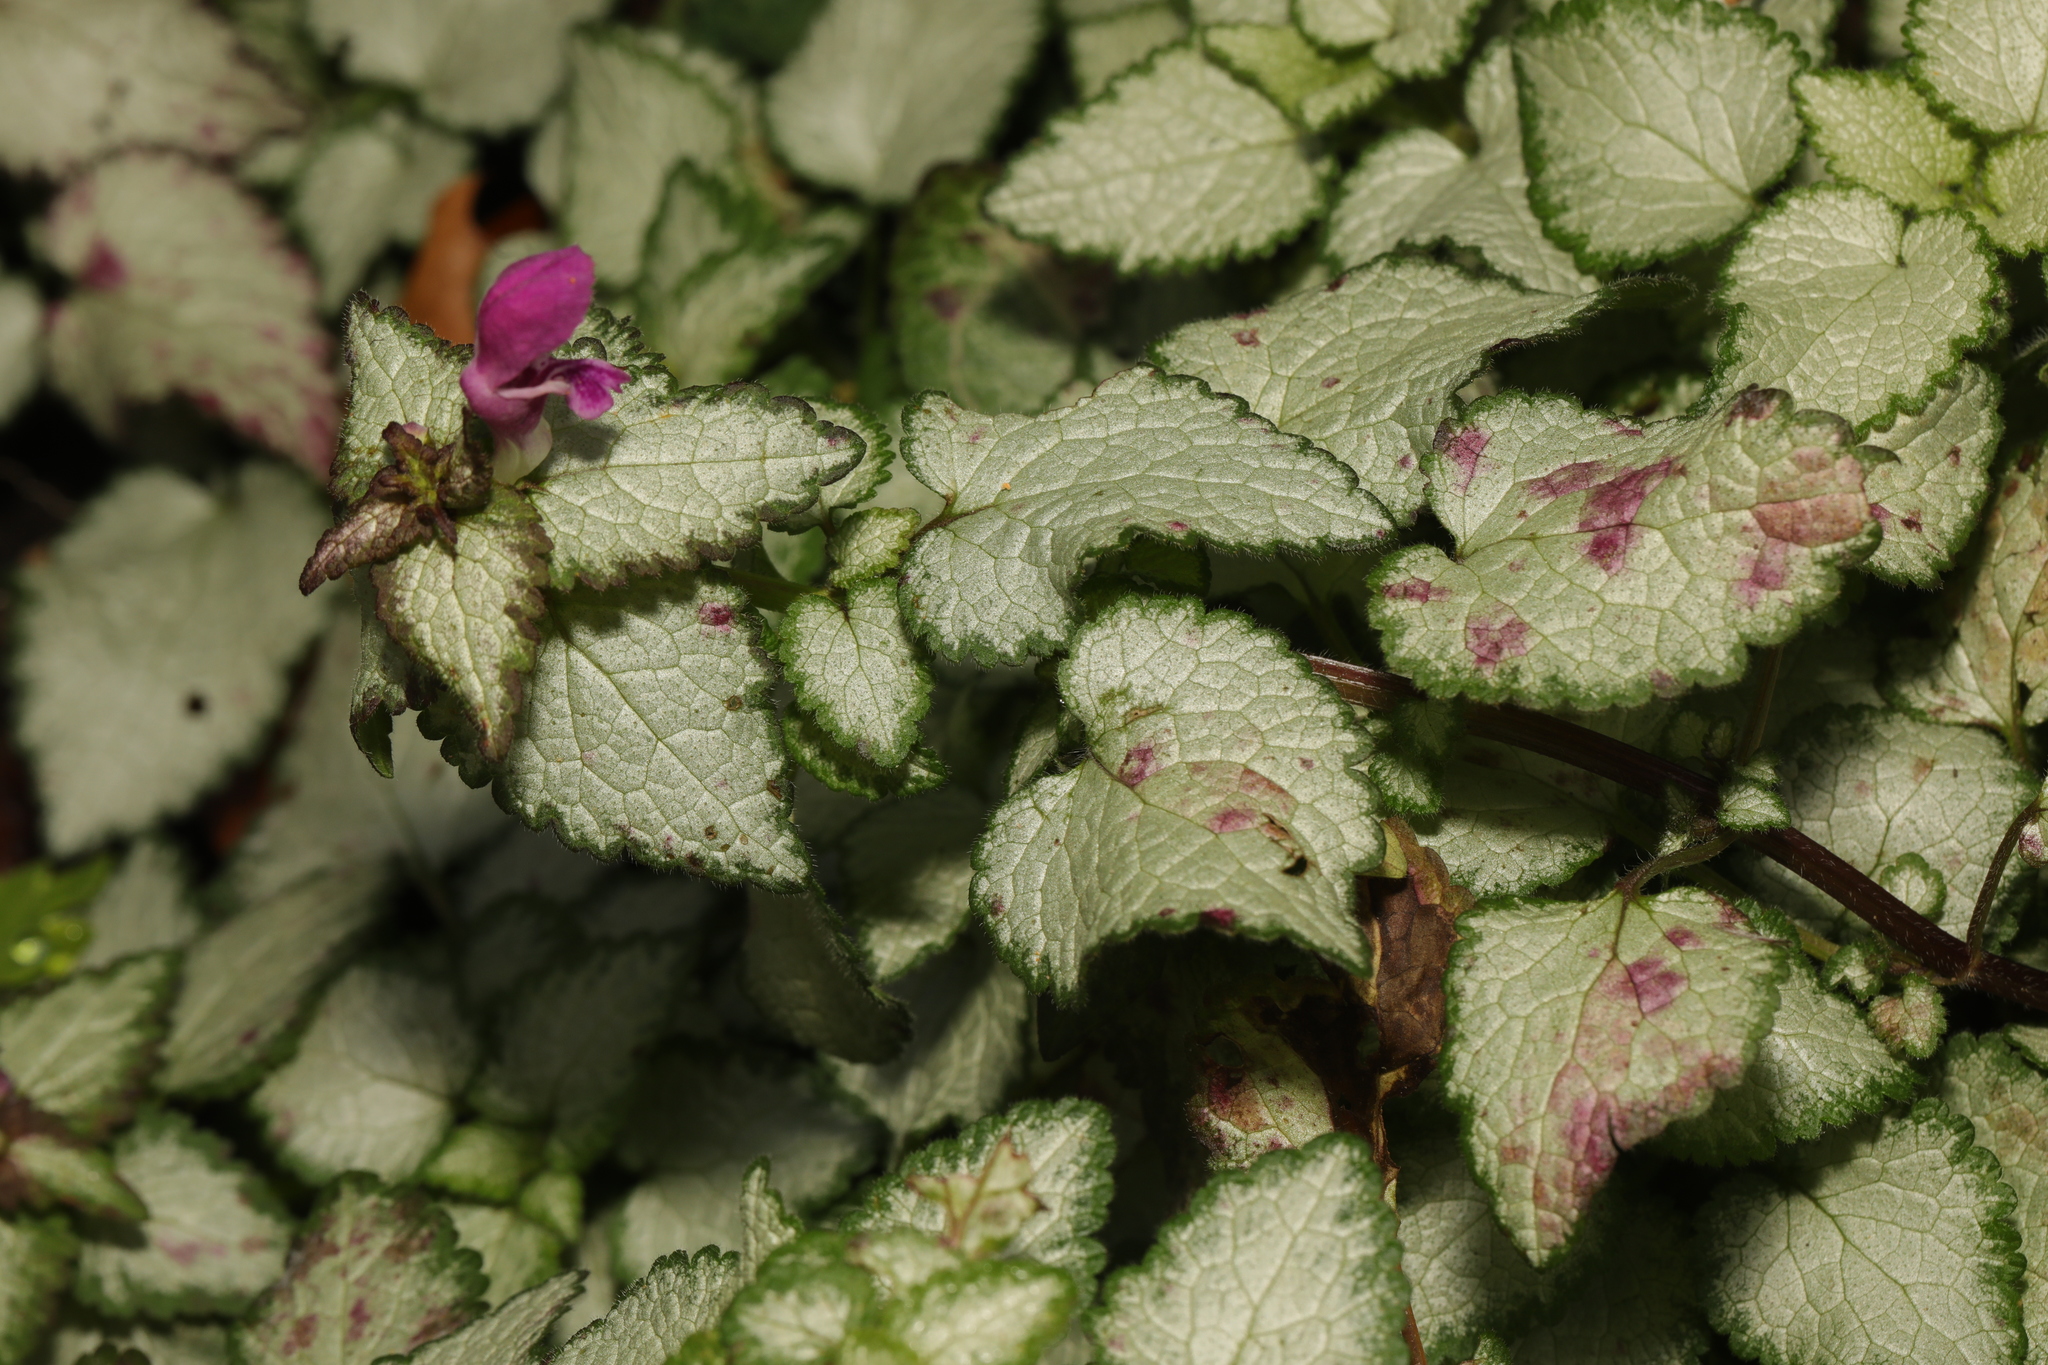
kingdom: Plantae
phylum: Tracheophyta
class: Magnoliopsida
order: Lamiales
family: Lamiaceae
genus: Lamium
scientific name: Lamium maculatum
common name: Spotted dead-nettle
